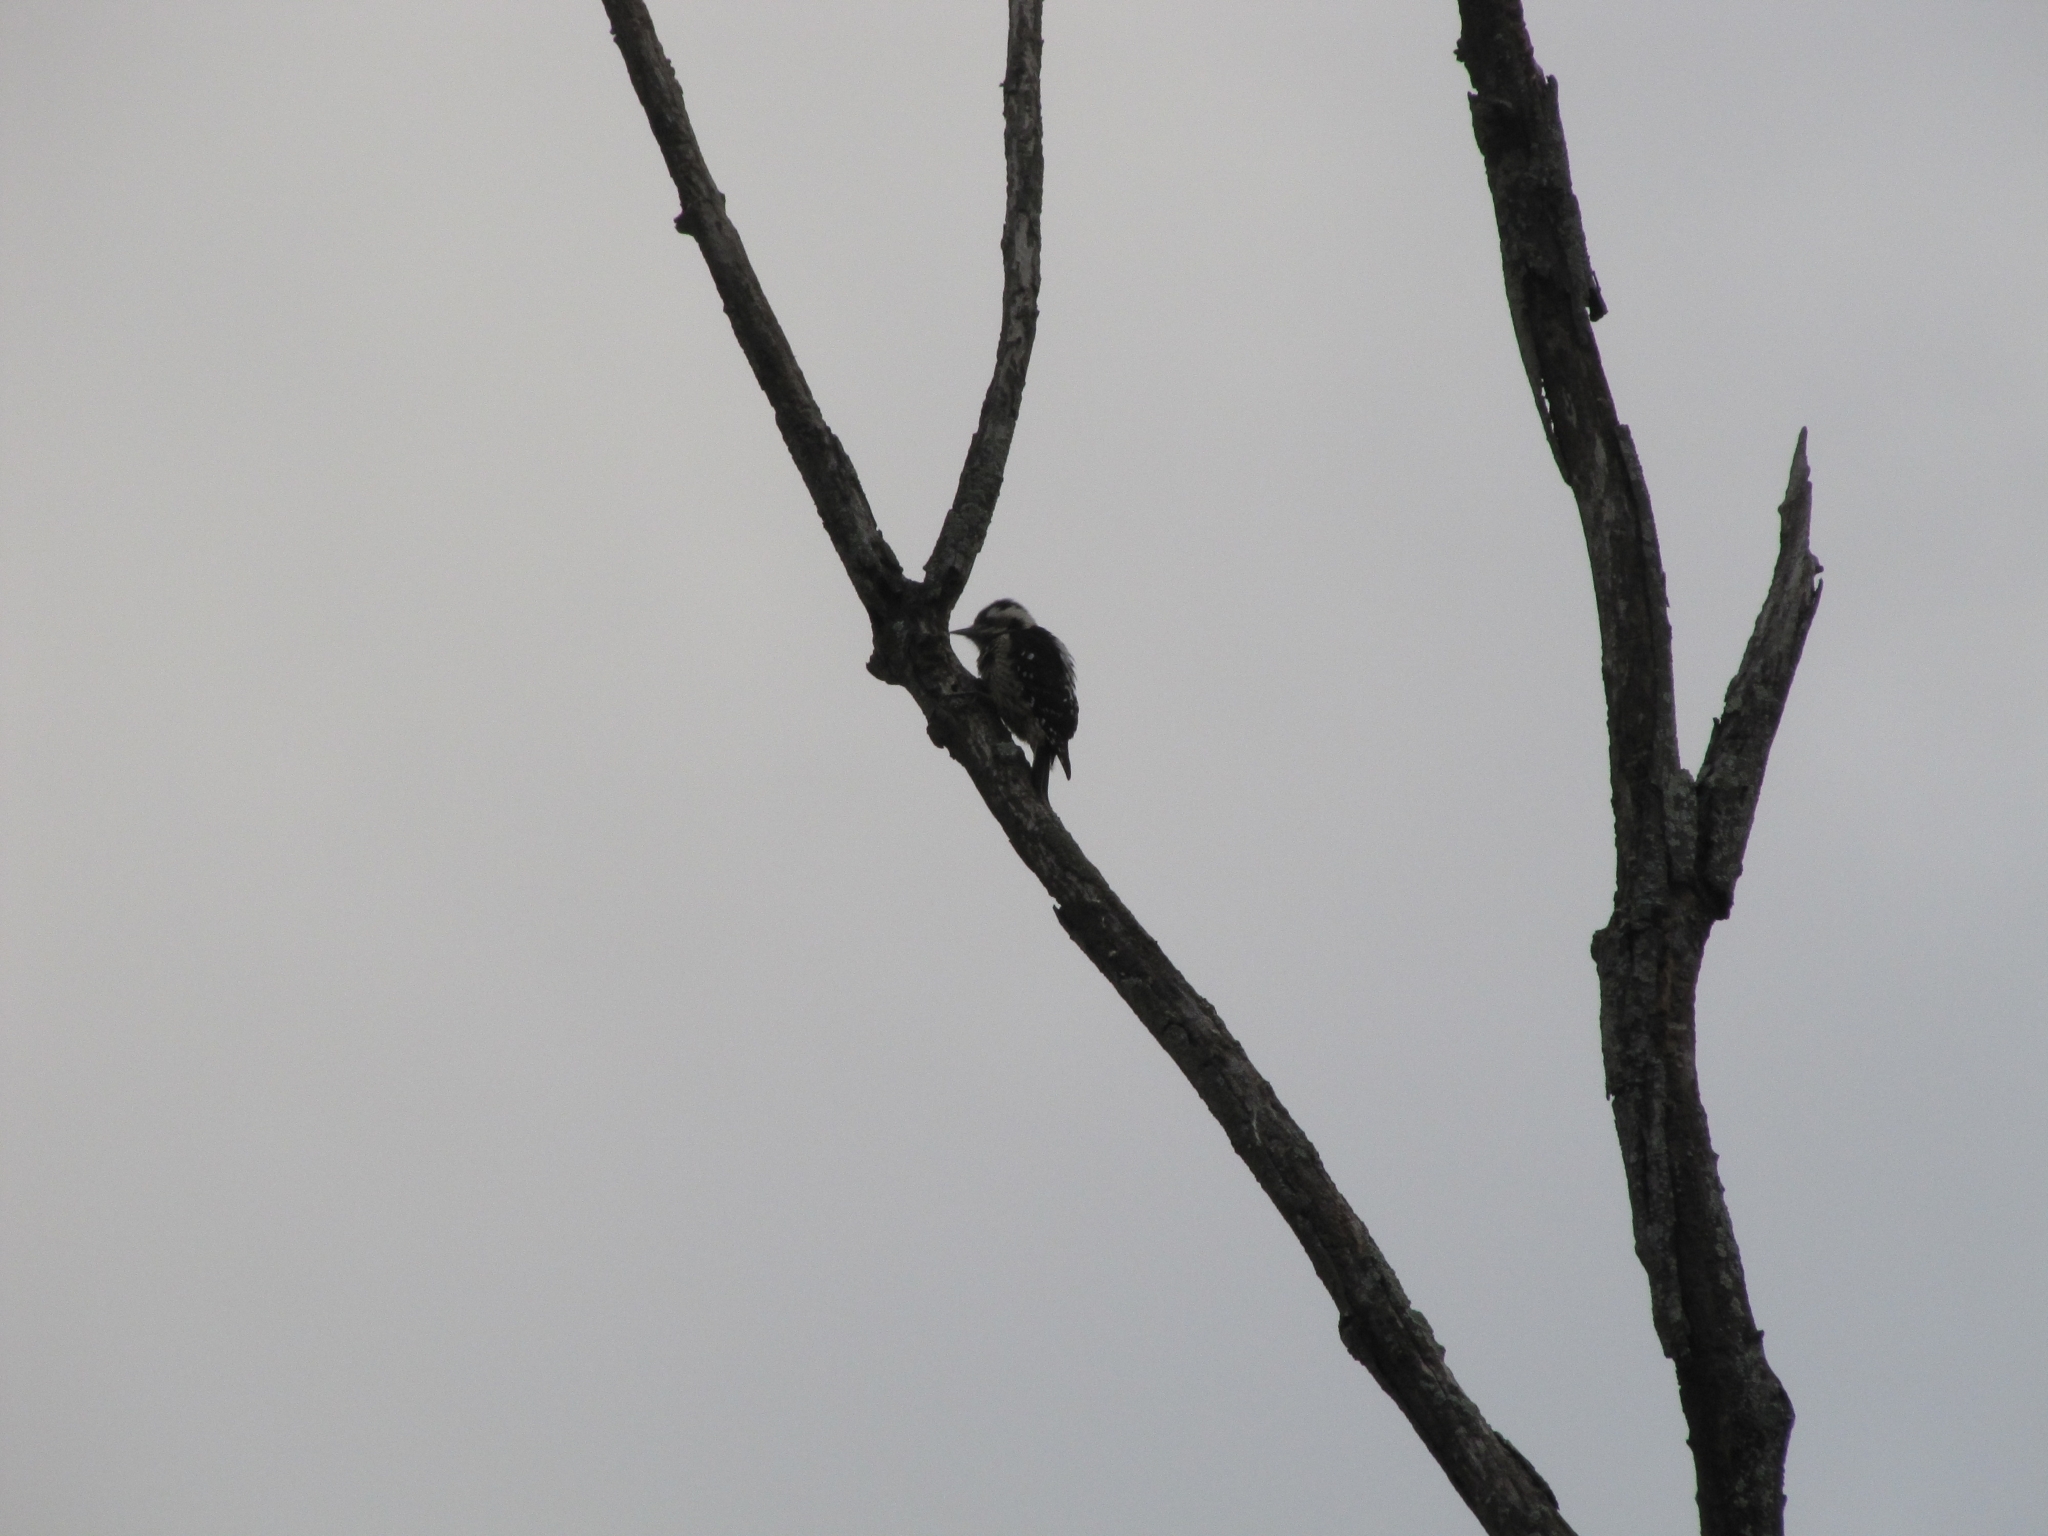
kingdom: Animalia
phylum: Chordata
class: Aves
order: Piciformes
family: Picidae
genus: Yungipicus
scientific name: Yungipicus canicapillus
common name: Grey-capped pygmy woodpecker
